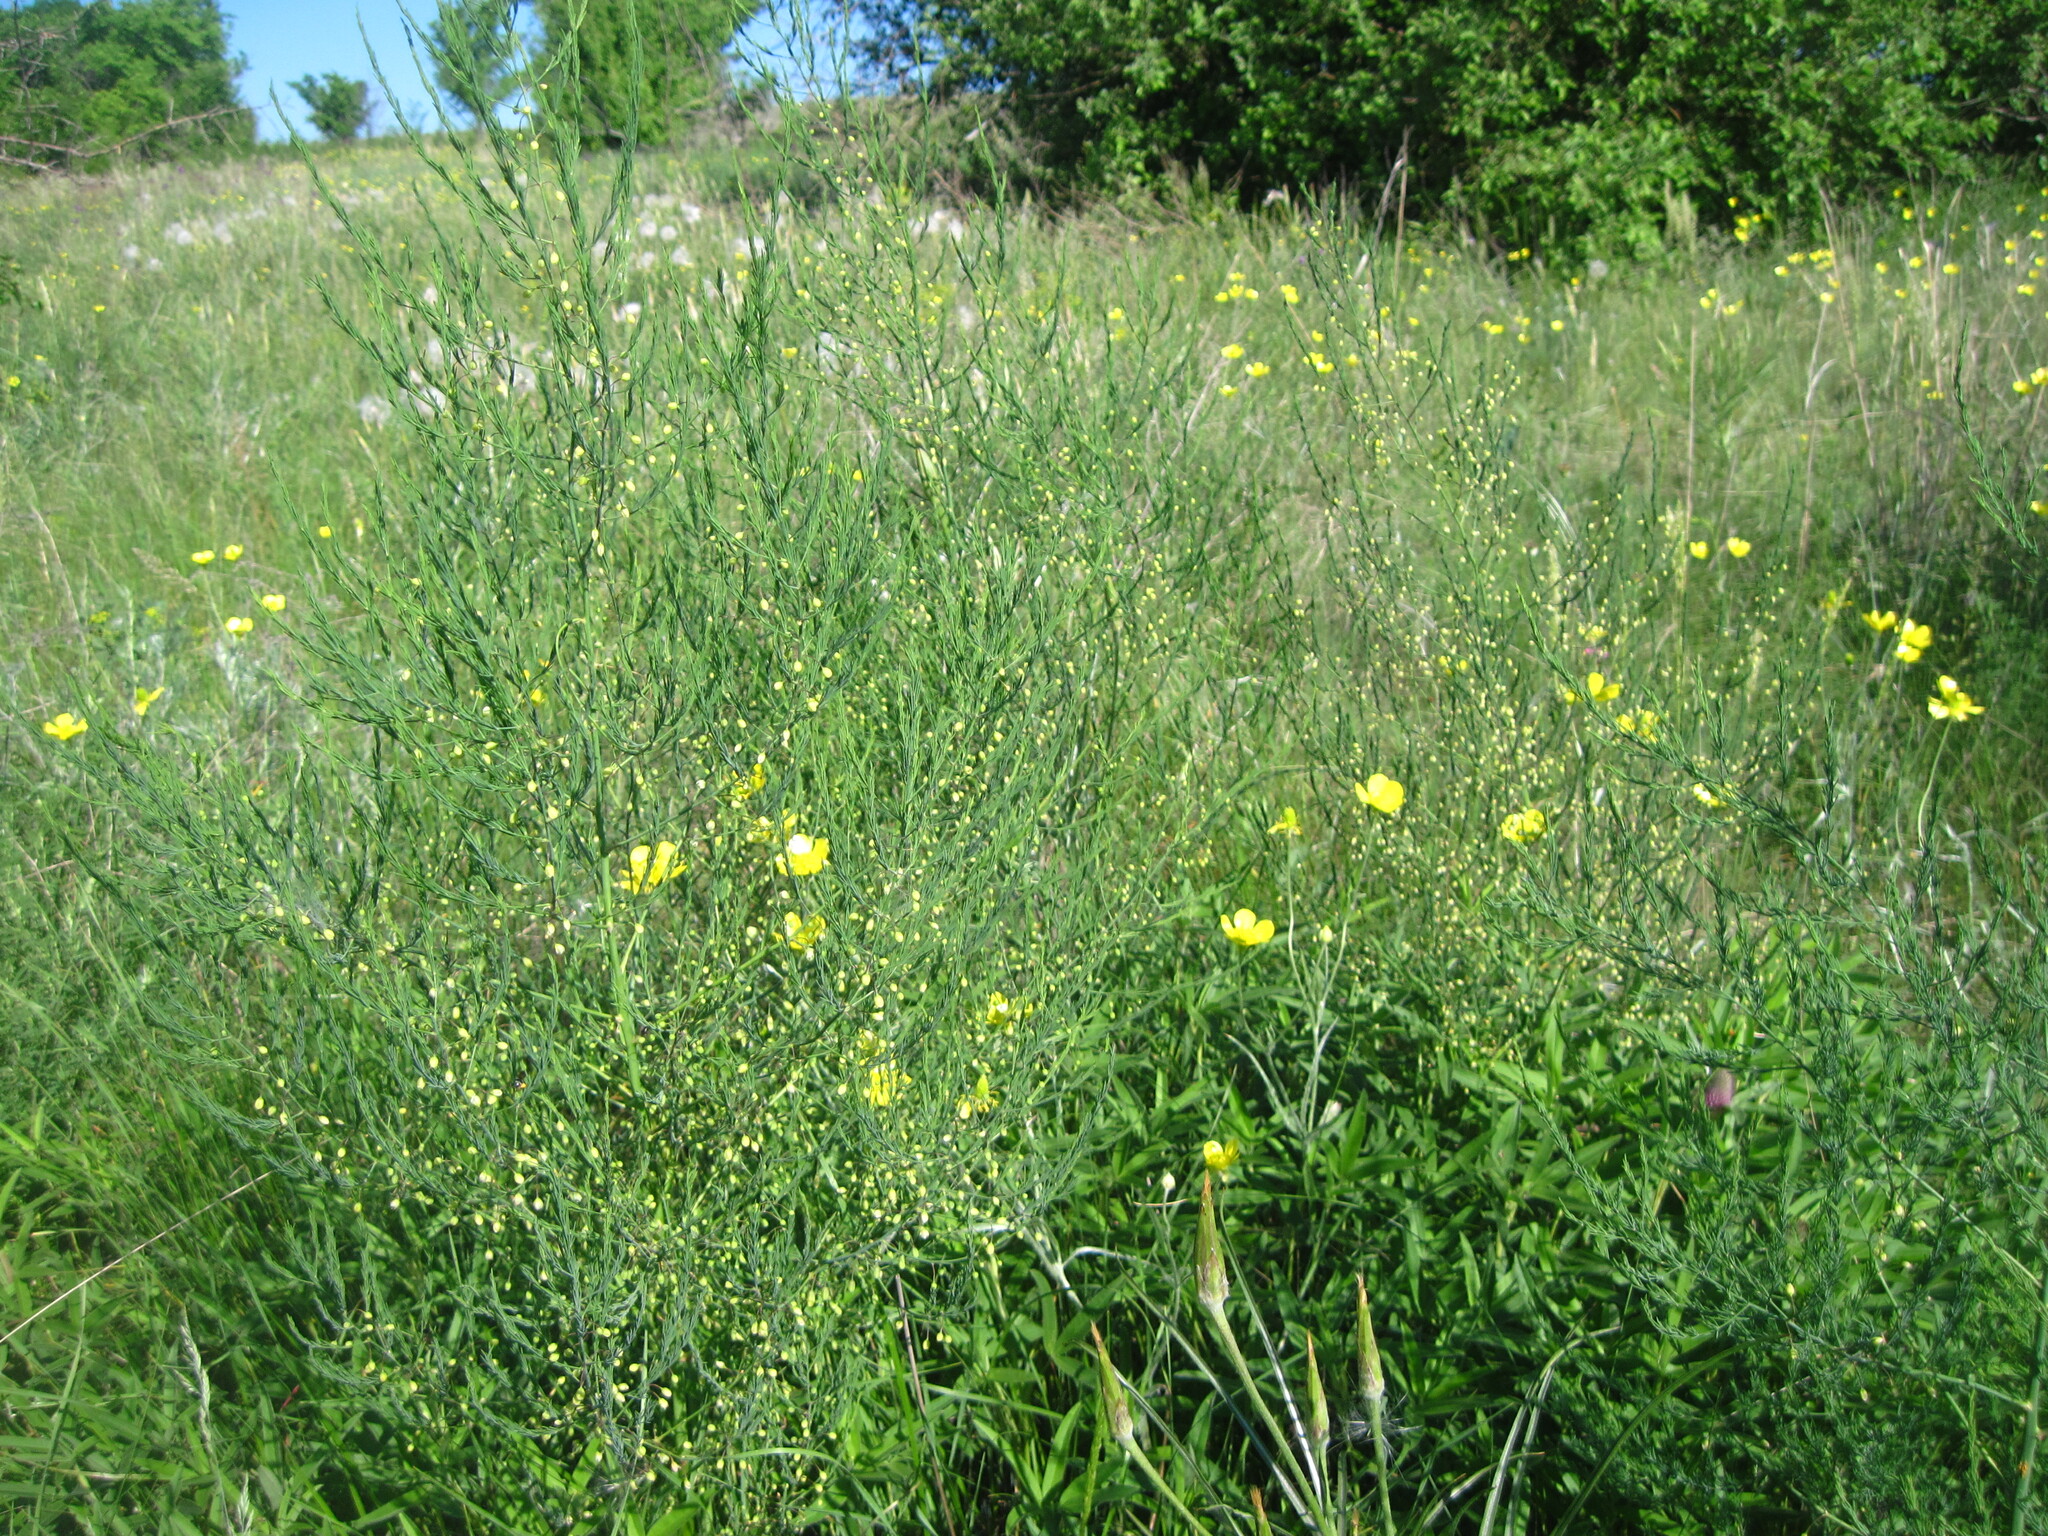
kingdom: Plantae
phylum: Tracheophyta
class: Liliopsida
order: Asparagales
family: Asparagaceae
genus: Asparagus
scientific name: Asparagus officinalis
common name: Garden asparagus
